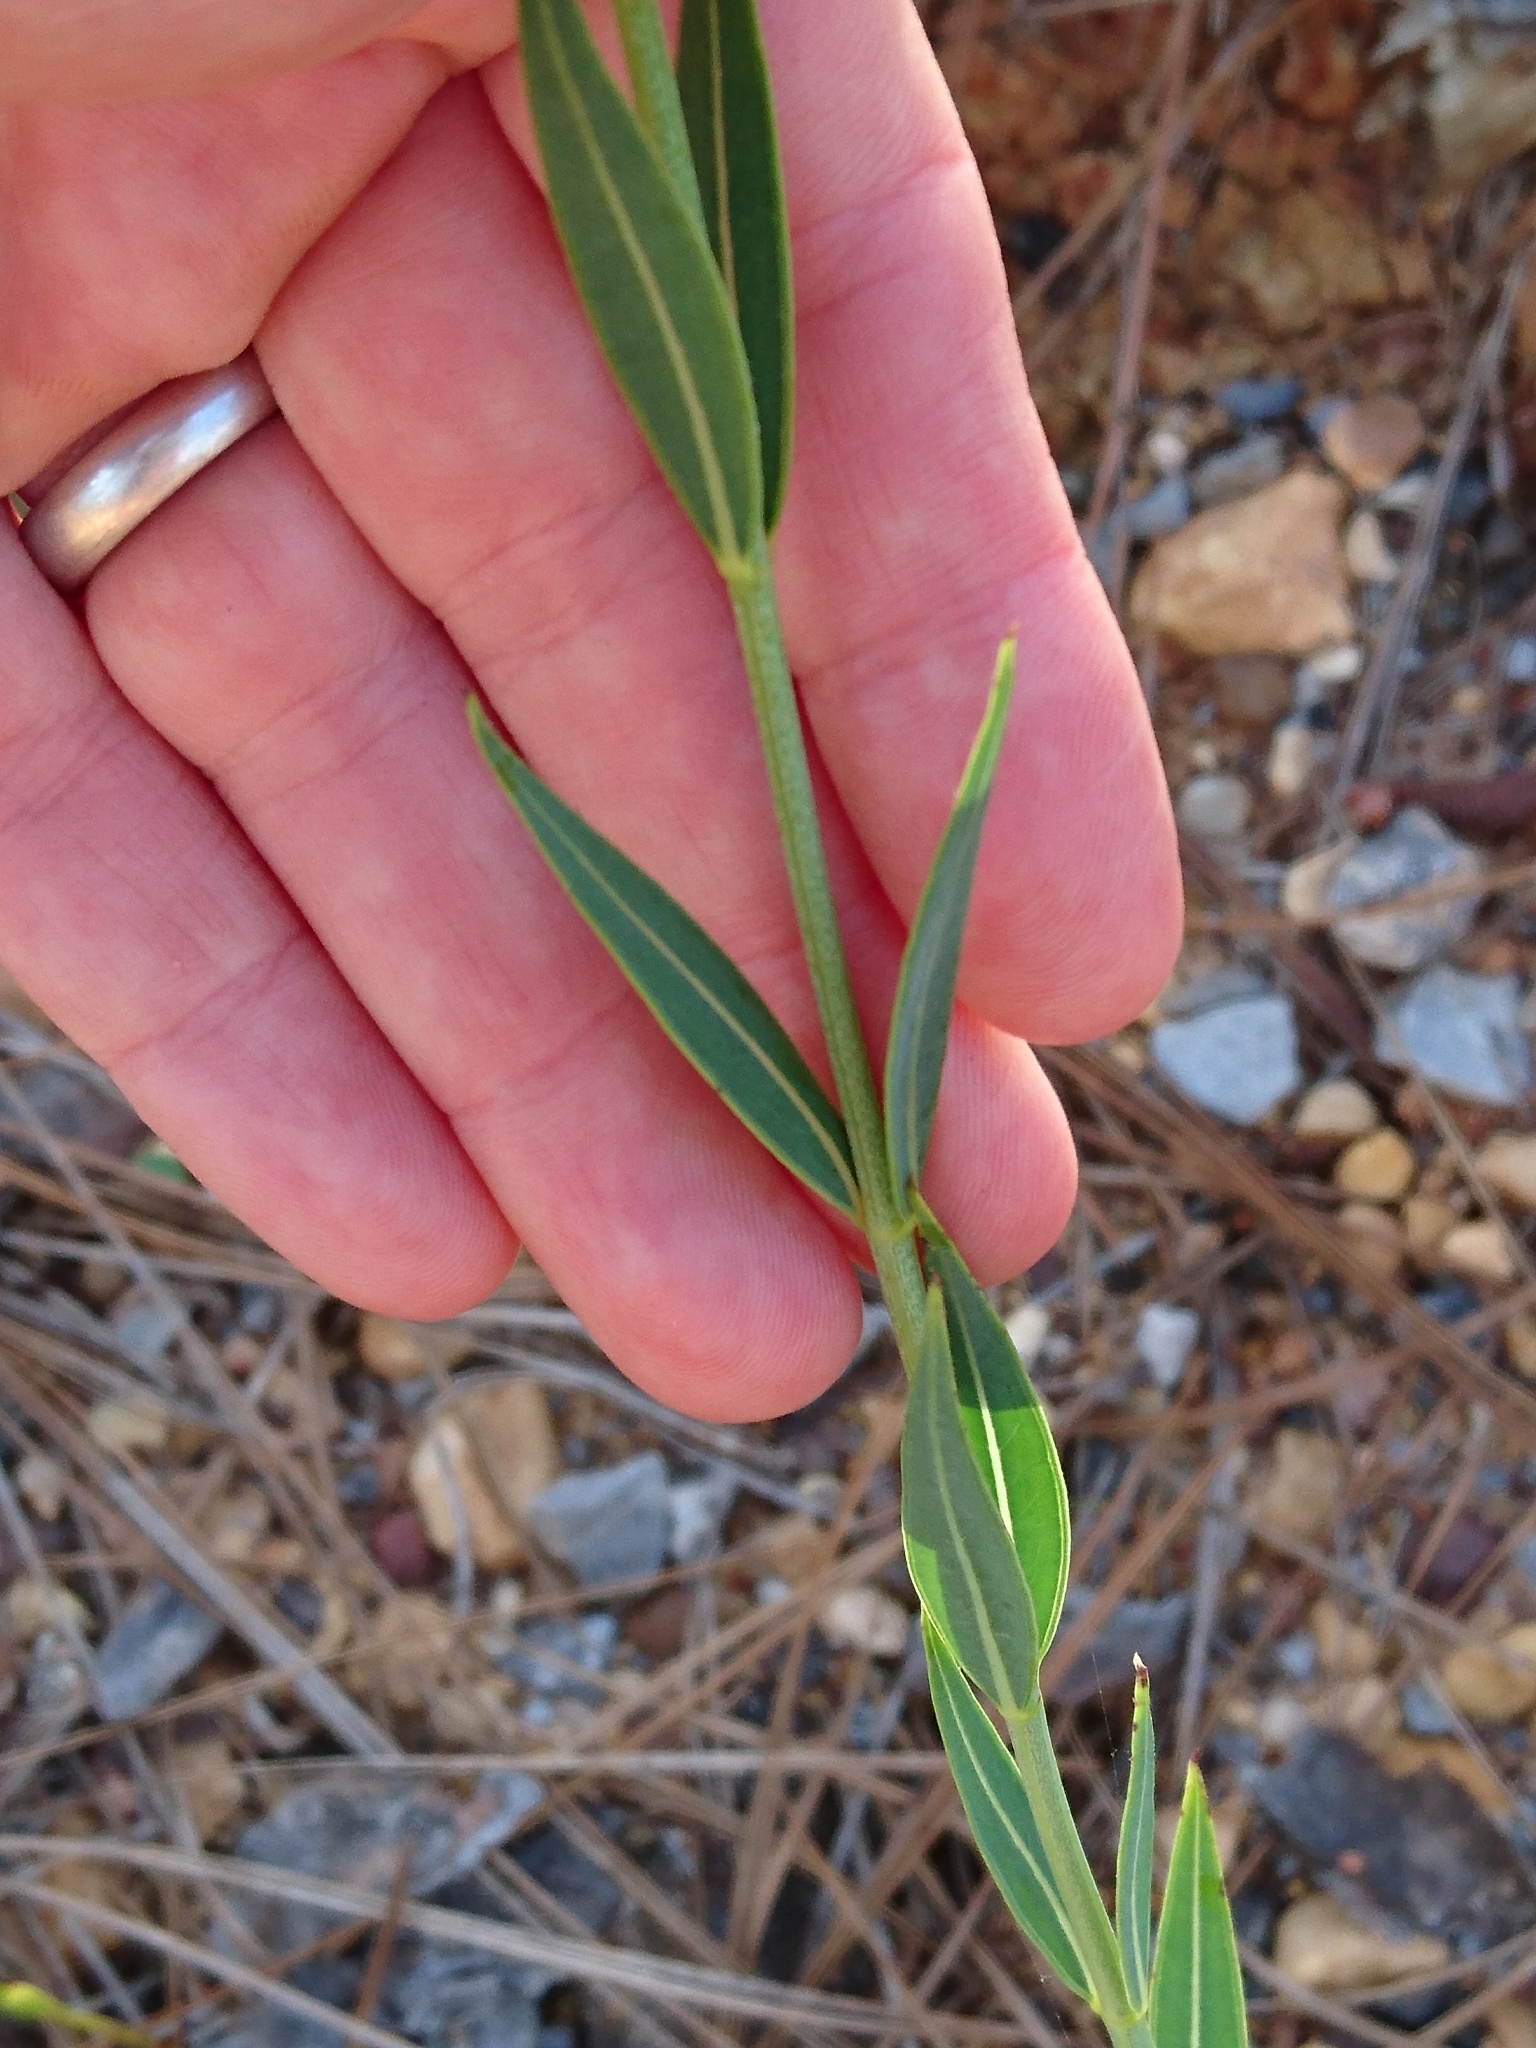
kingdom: Plantae
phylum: Tracheophyta
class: Magnoliopsida
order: Myrtales
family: Melastomataceae
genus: Rhexia
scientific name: Rhexia alifanus
